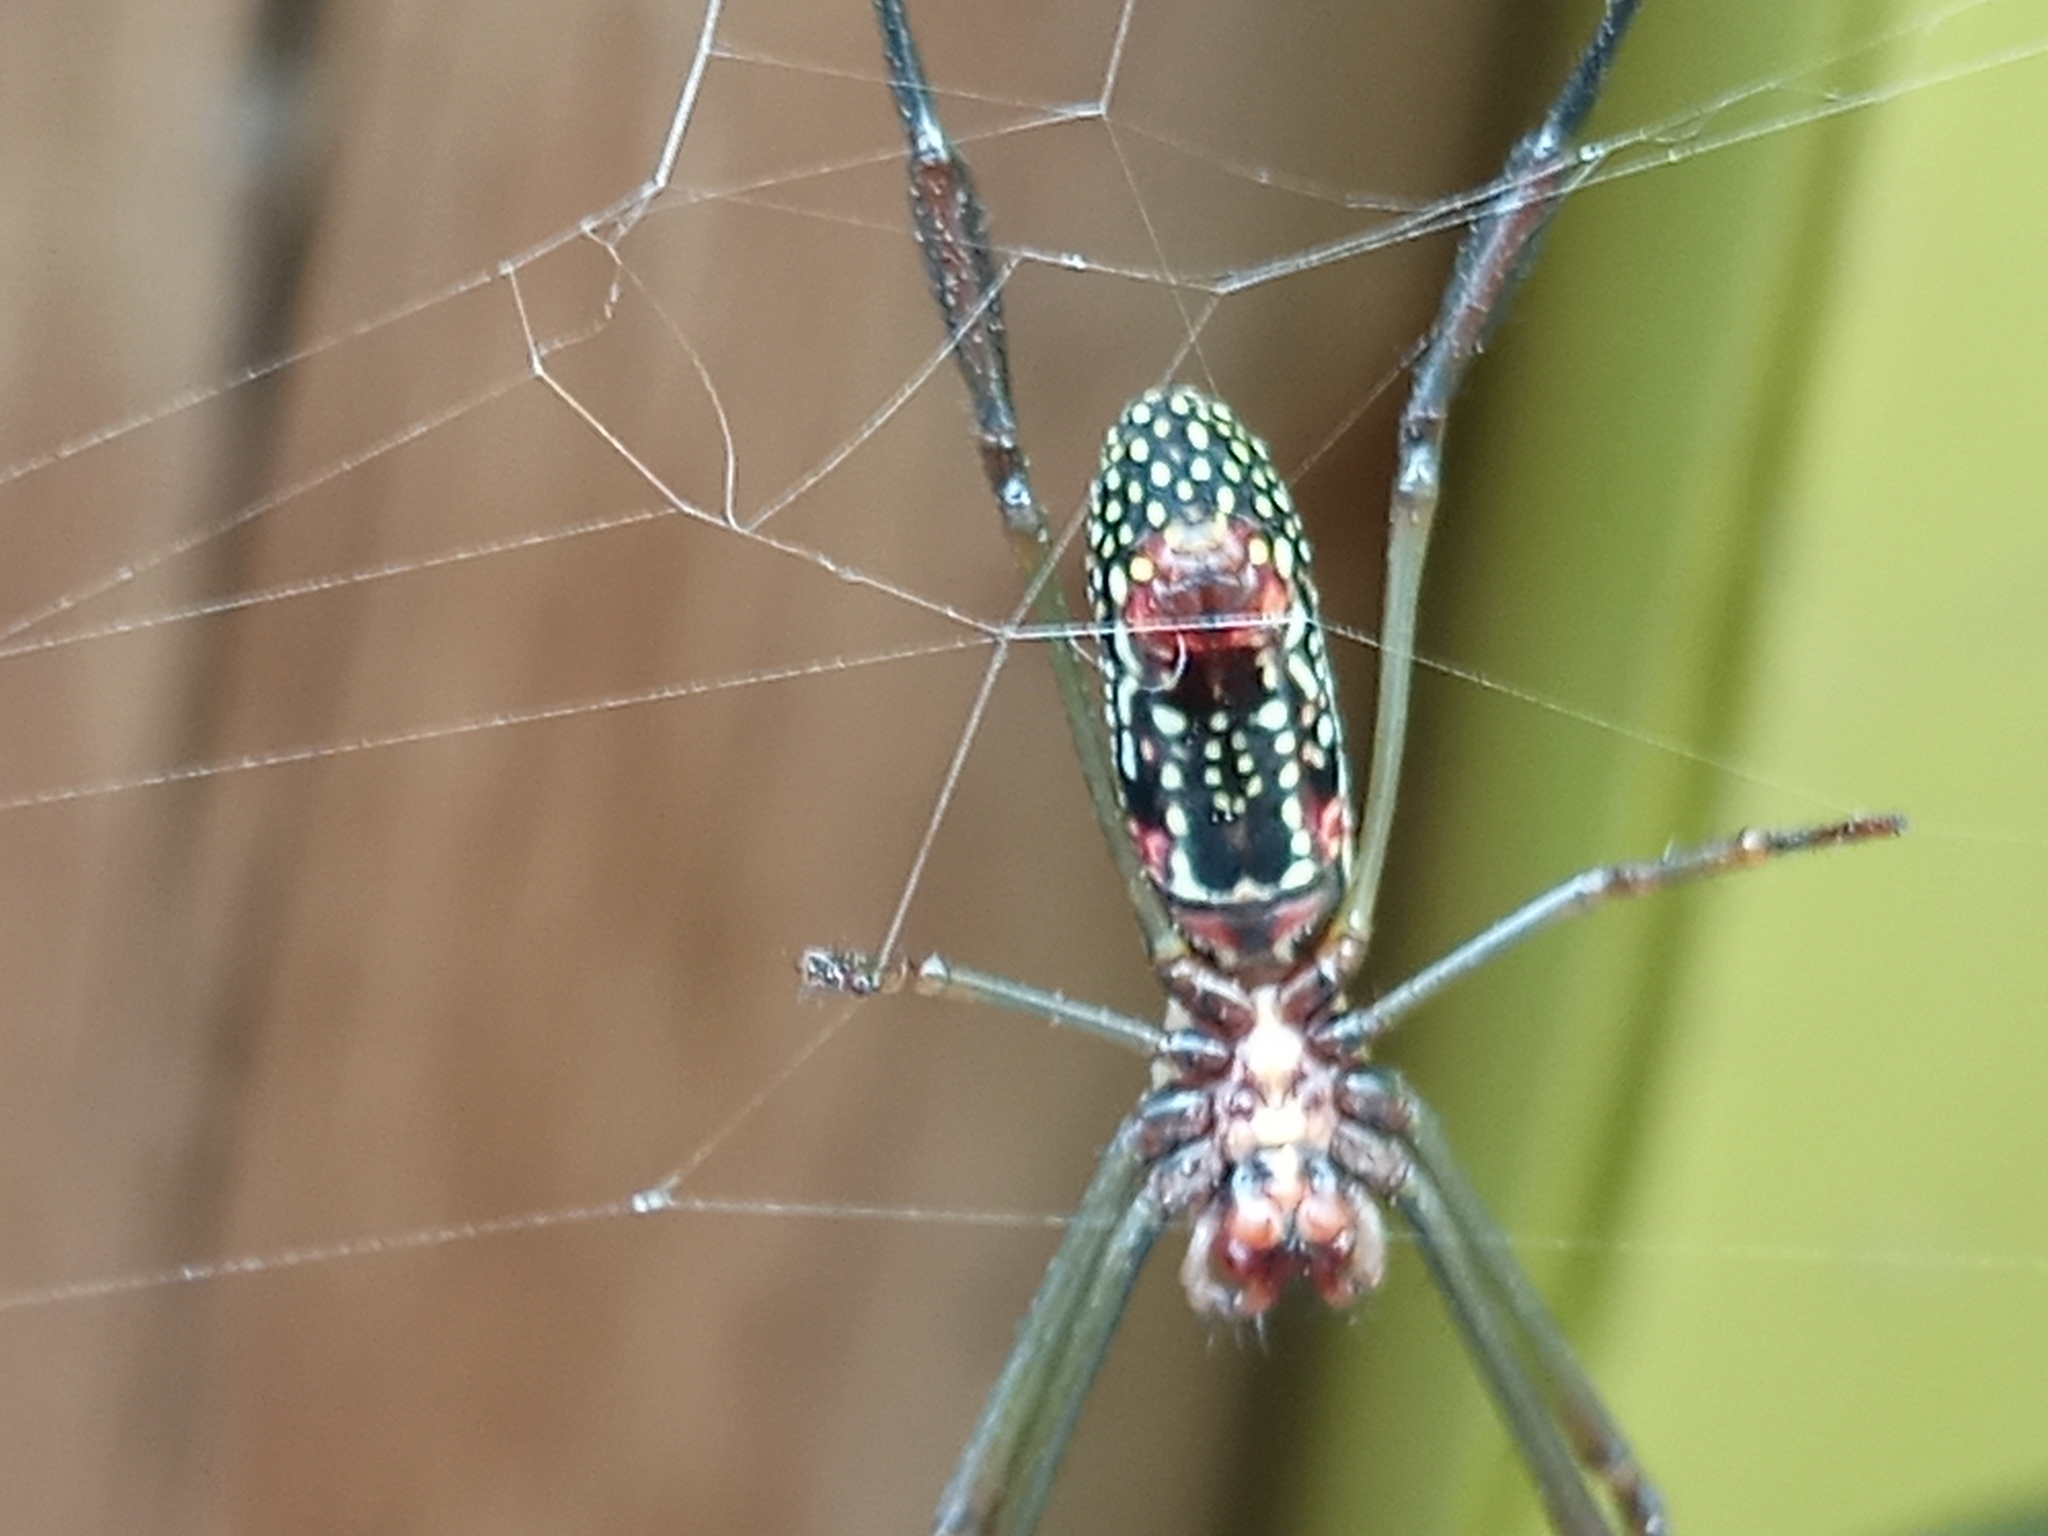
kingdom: Animalia
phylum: Arthropoda
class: Arachnida
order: Araneae
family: Araneidae
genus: Trichonephila
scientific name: Trichonephila clavipes
